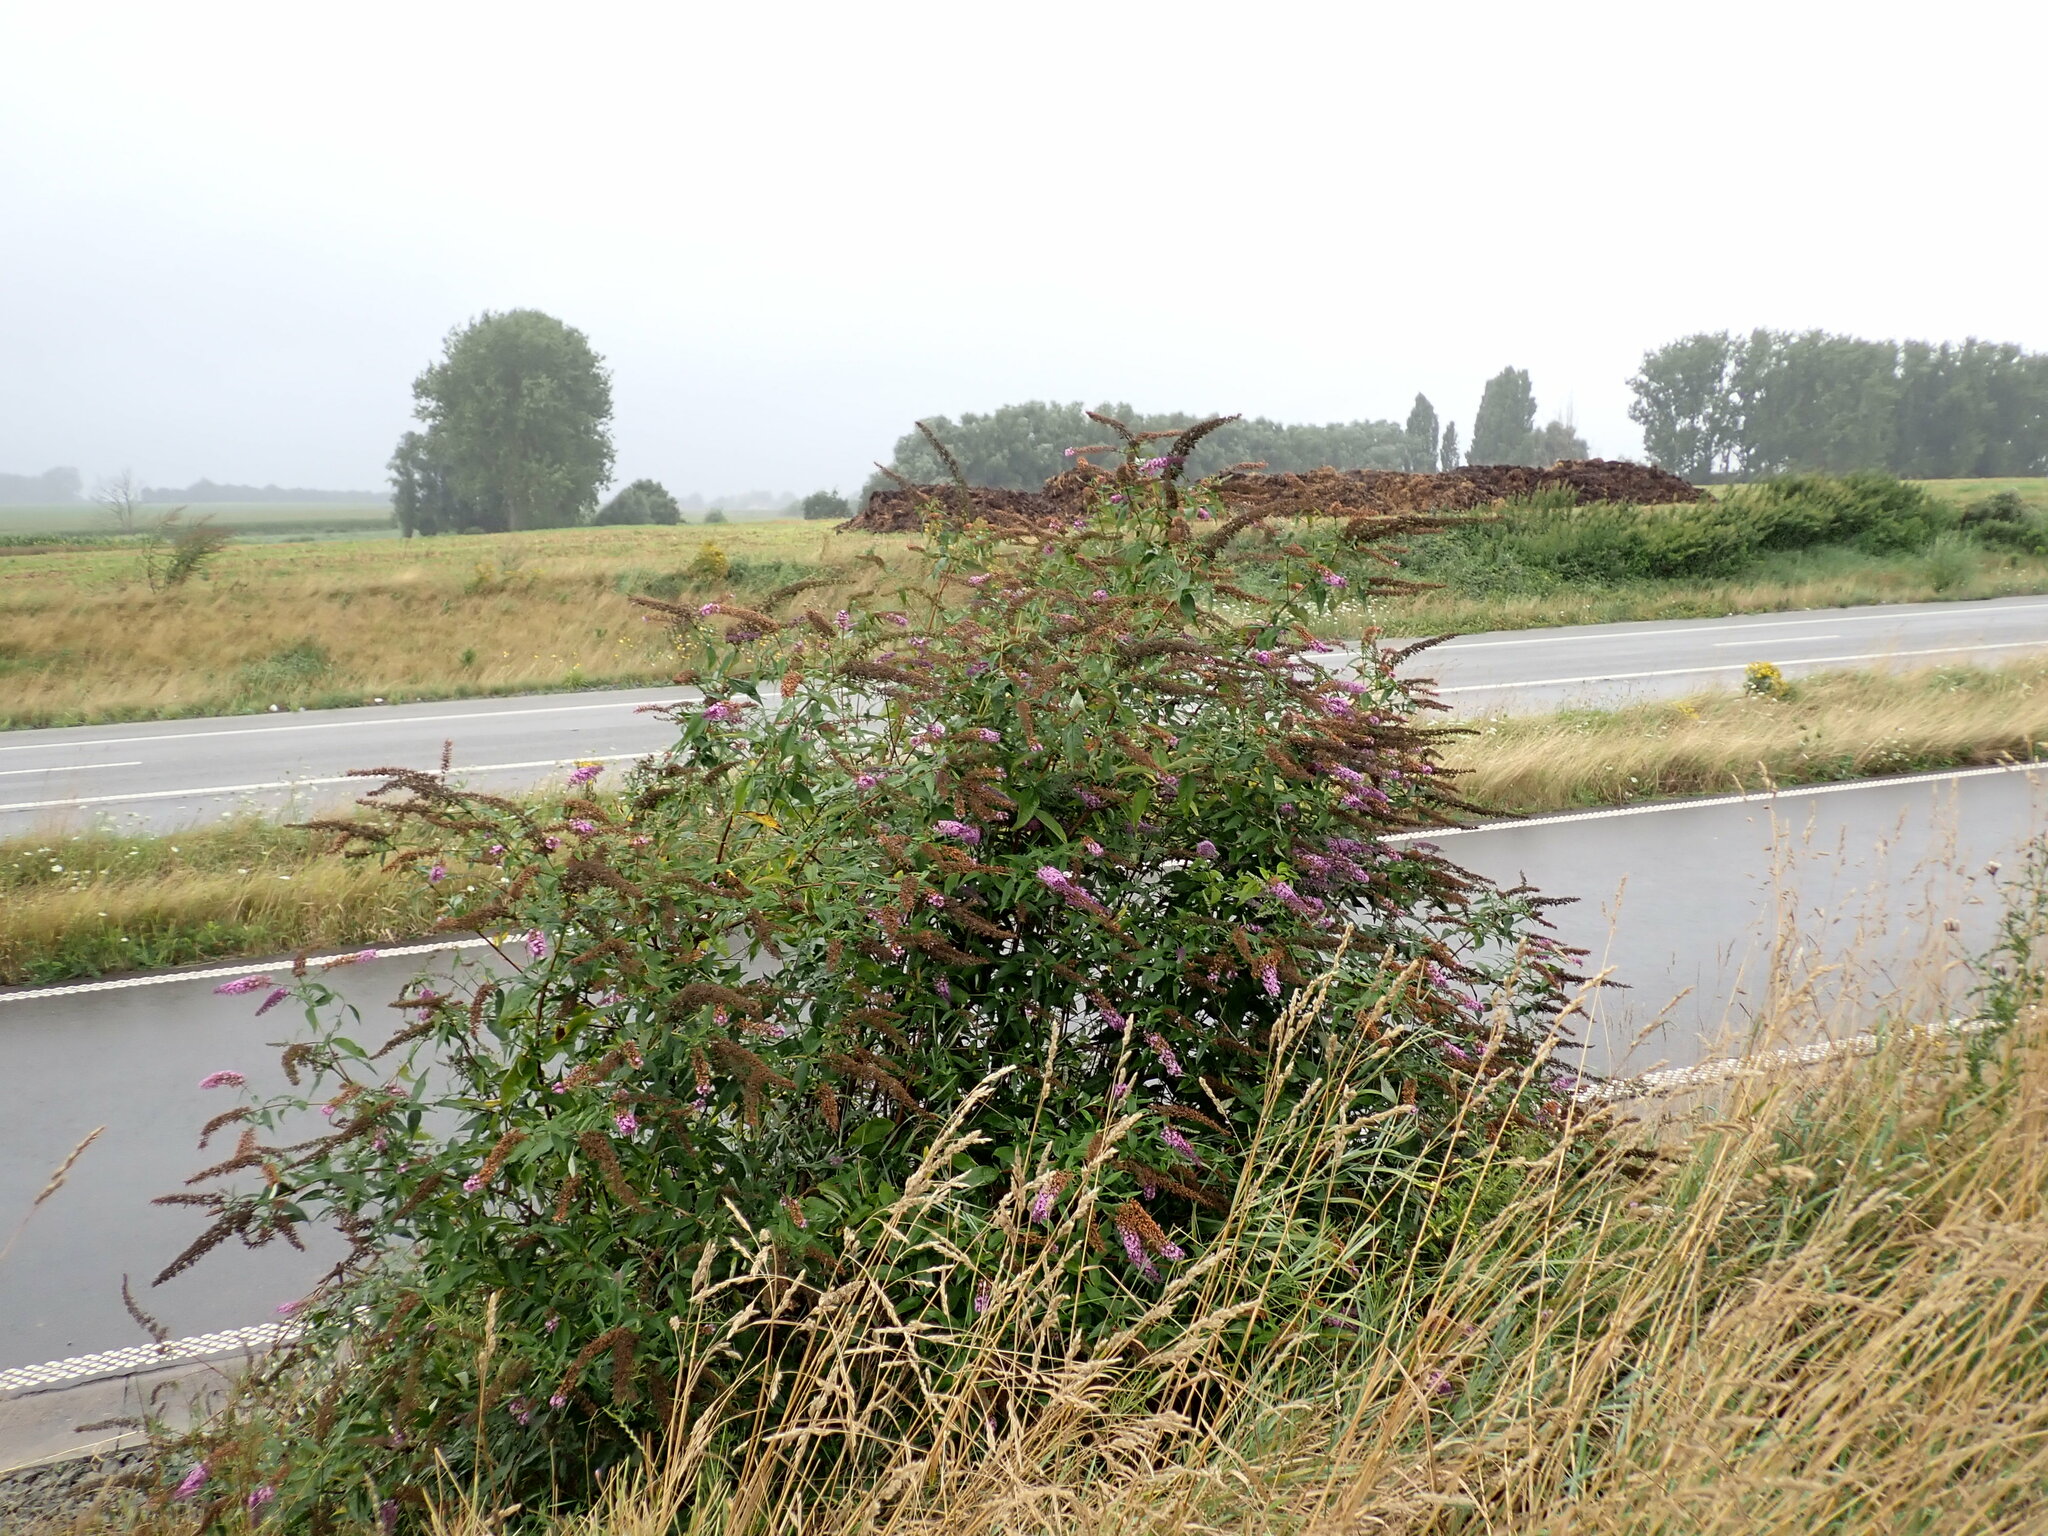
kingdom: Plantae
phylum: Tracheophyta
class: Magnoliopsida
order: Lamiales
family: Scrophulariaceae
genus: Buddleja
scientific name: Buddleja davidii
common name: Butterfly-bush
